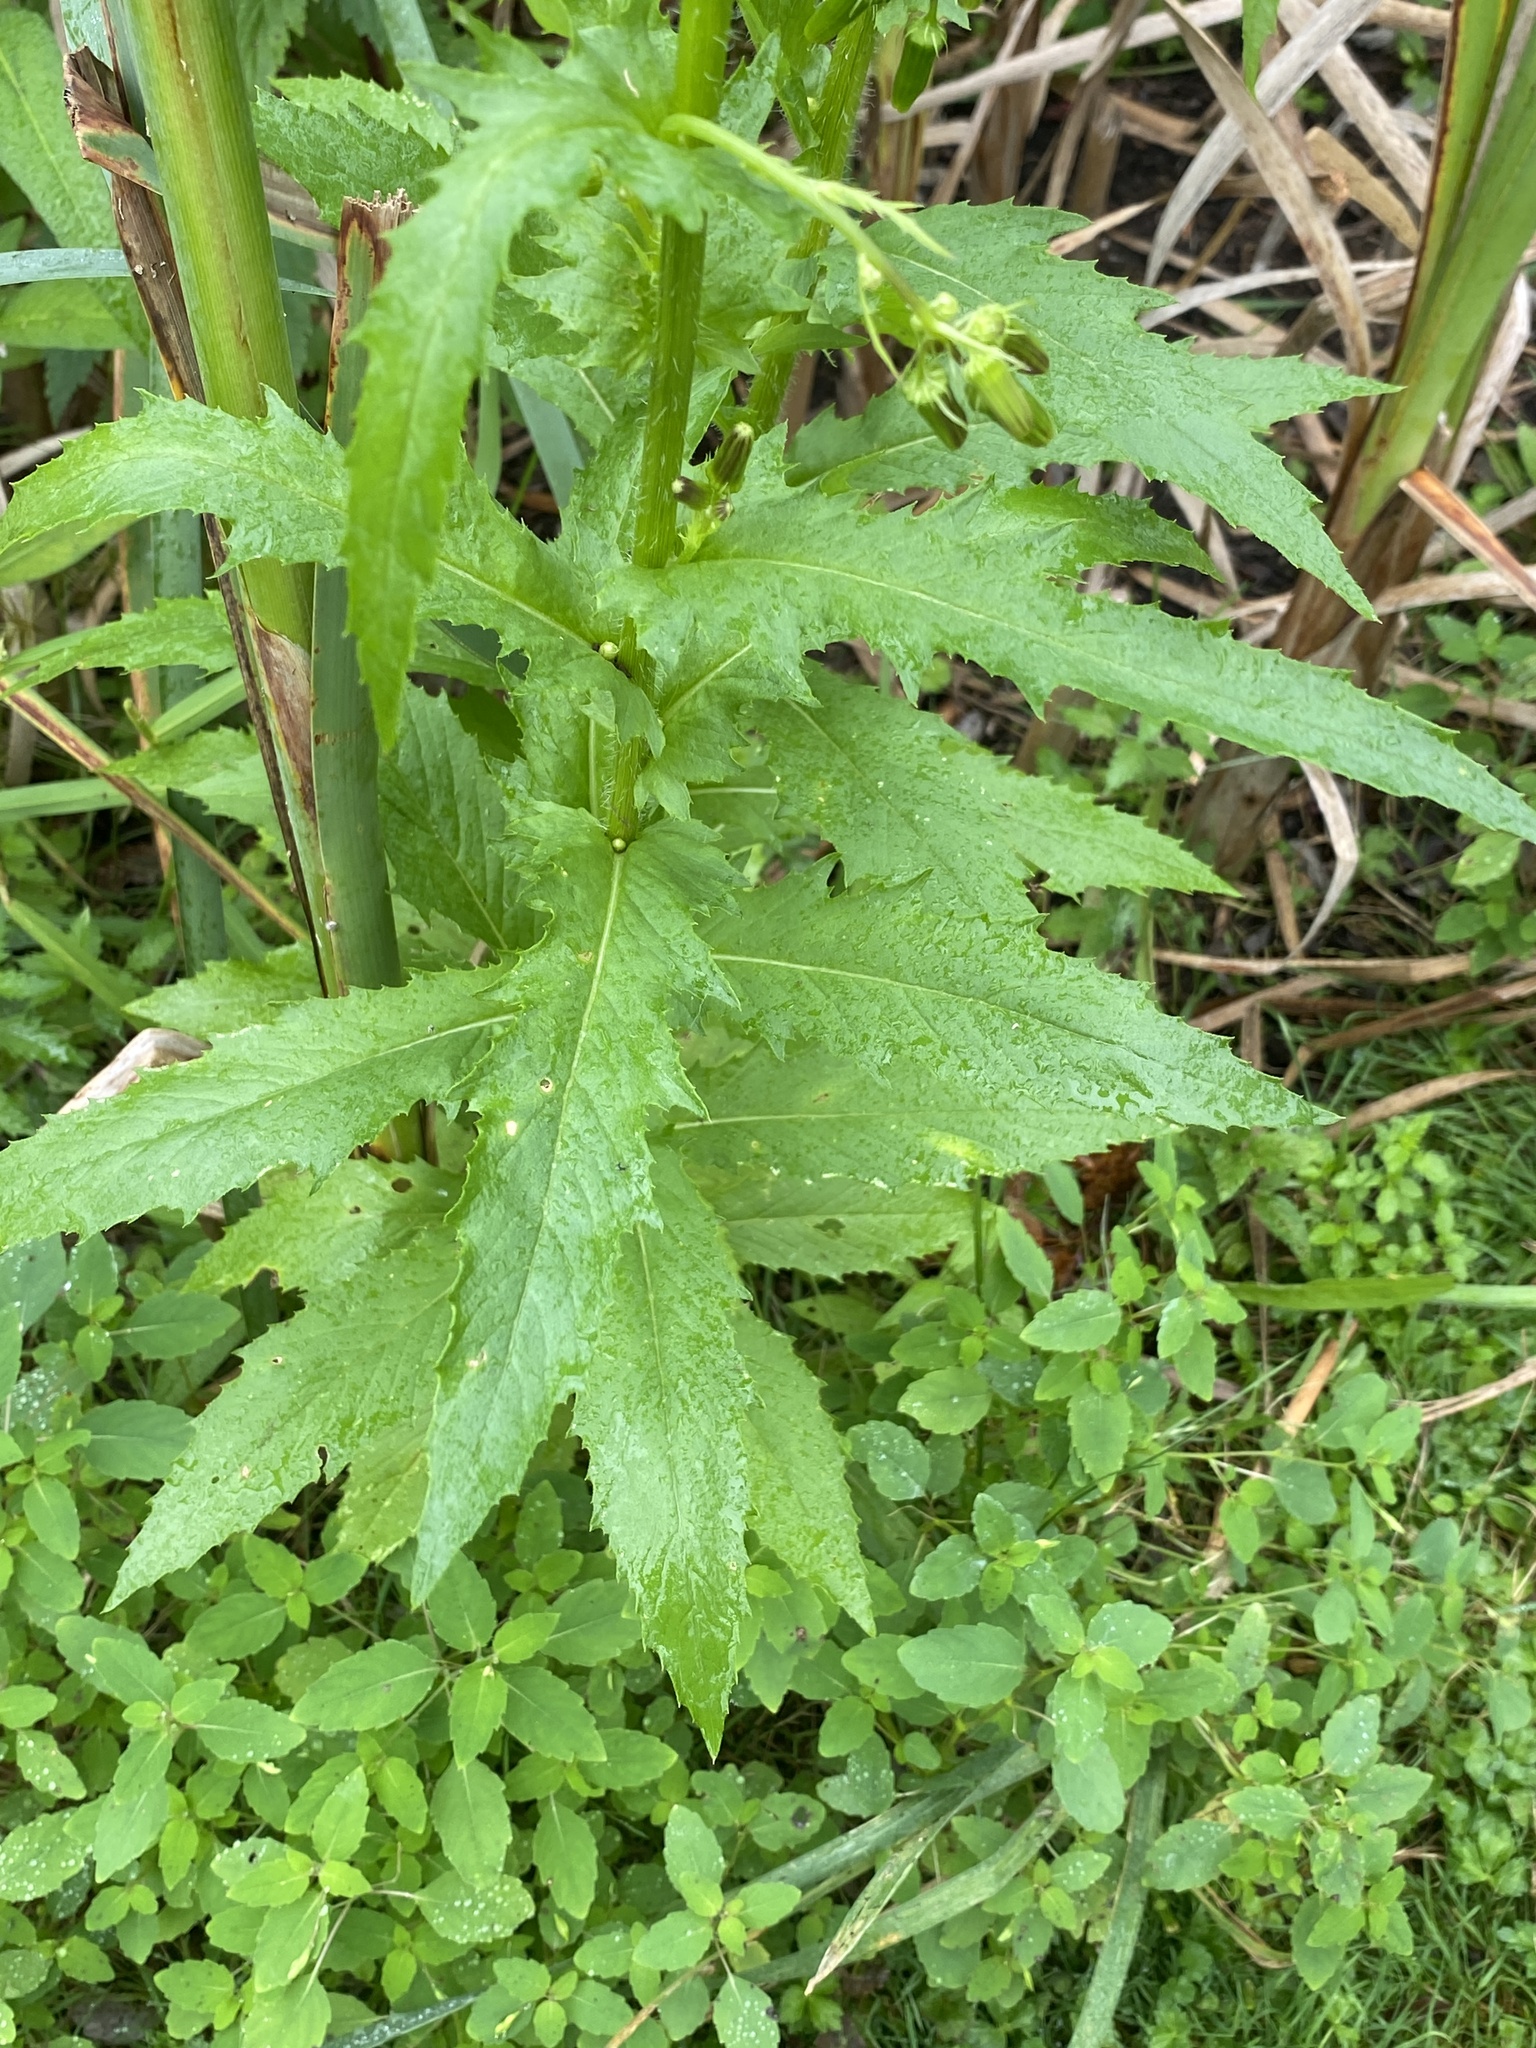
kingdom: Plantae
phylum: Tracheophyta
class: Magnoliopsida
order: Asterales
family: Asteraceae
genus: Erechtites
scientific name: Erechtites hieraciifolius
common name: American burnweed
